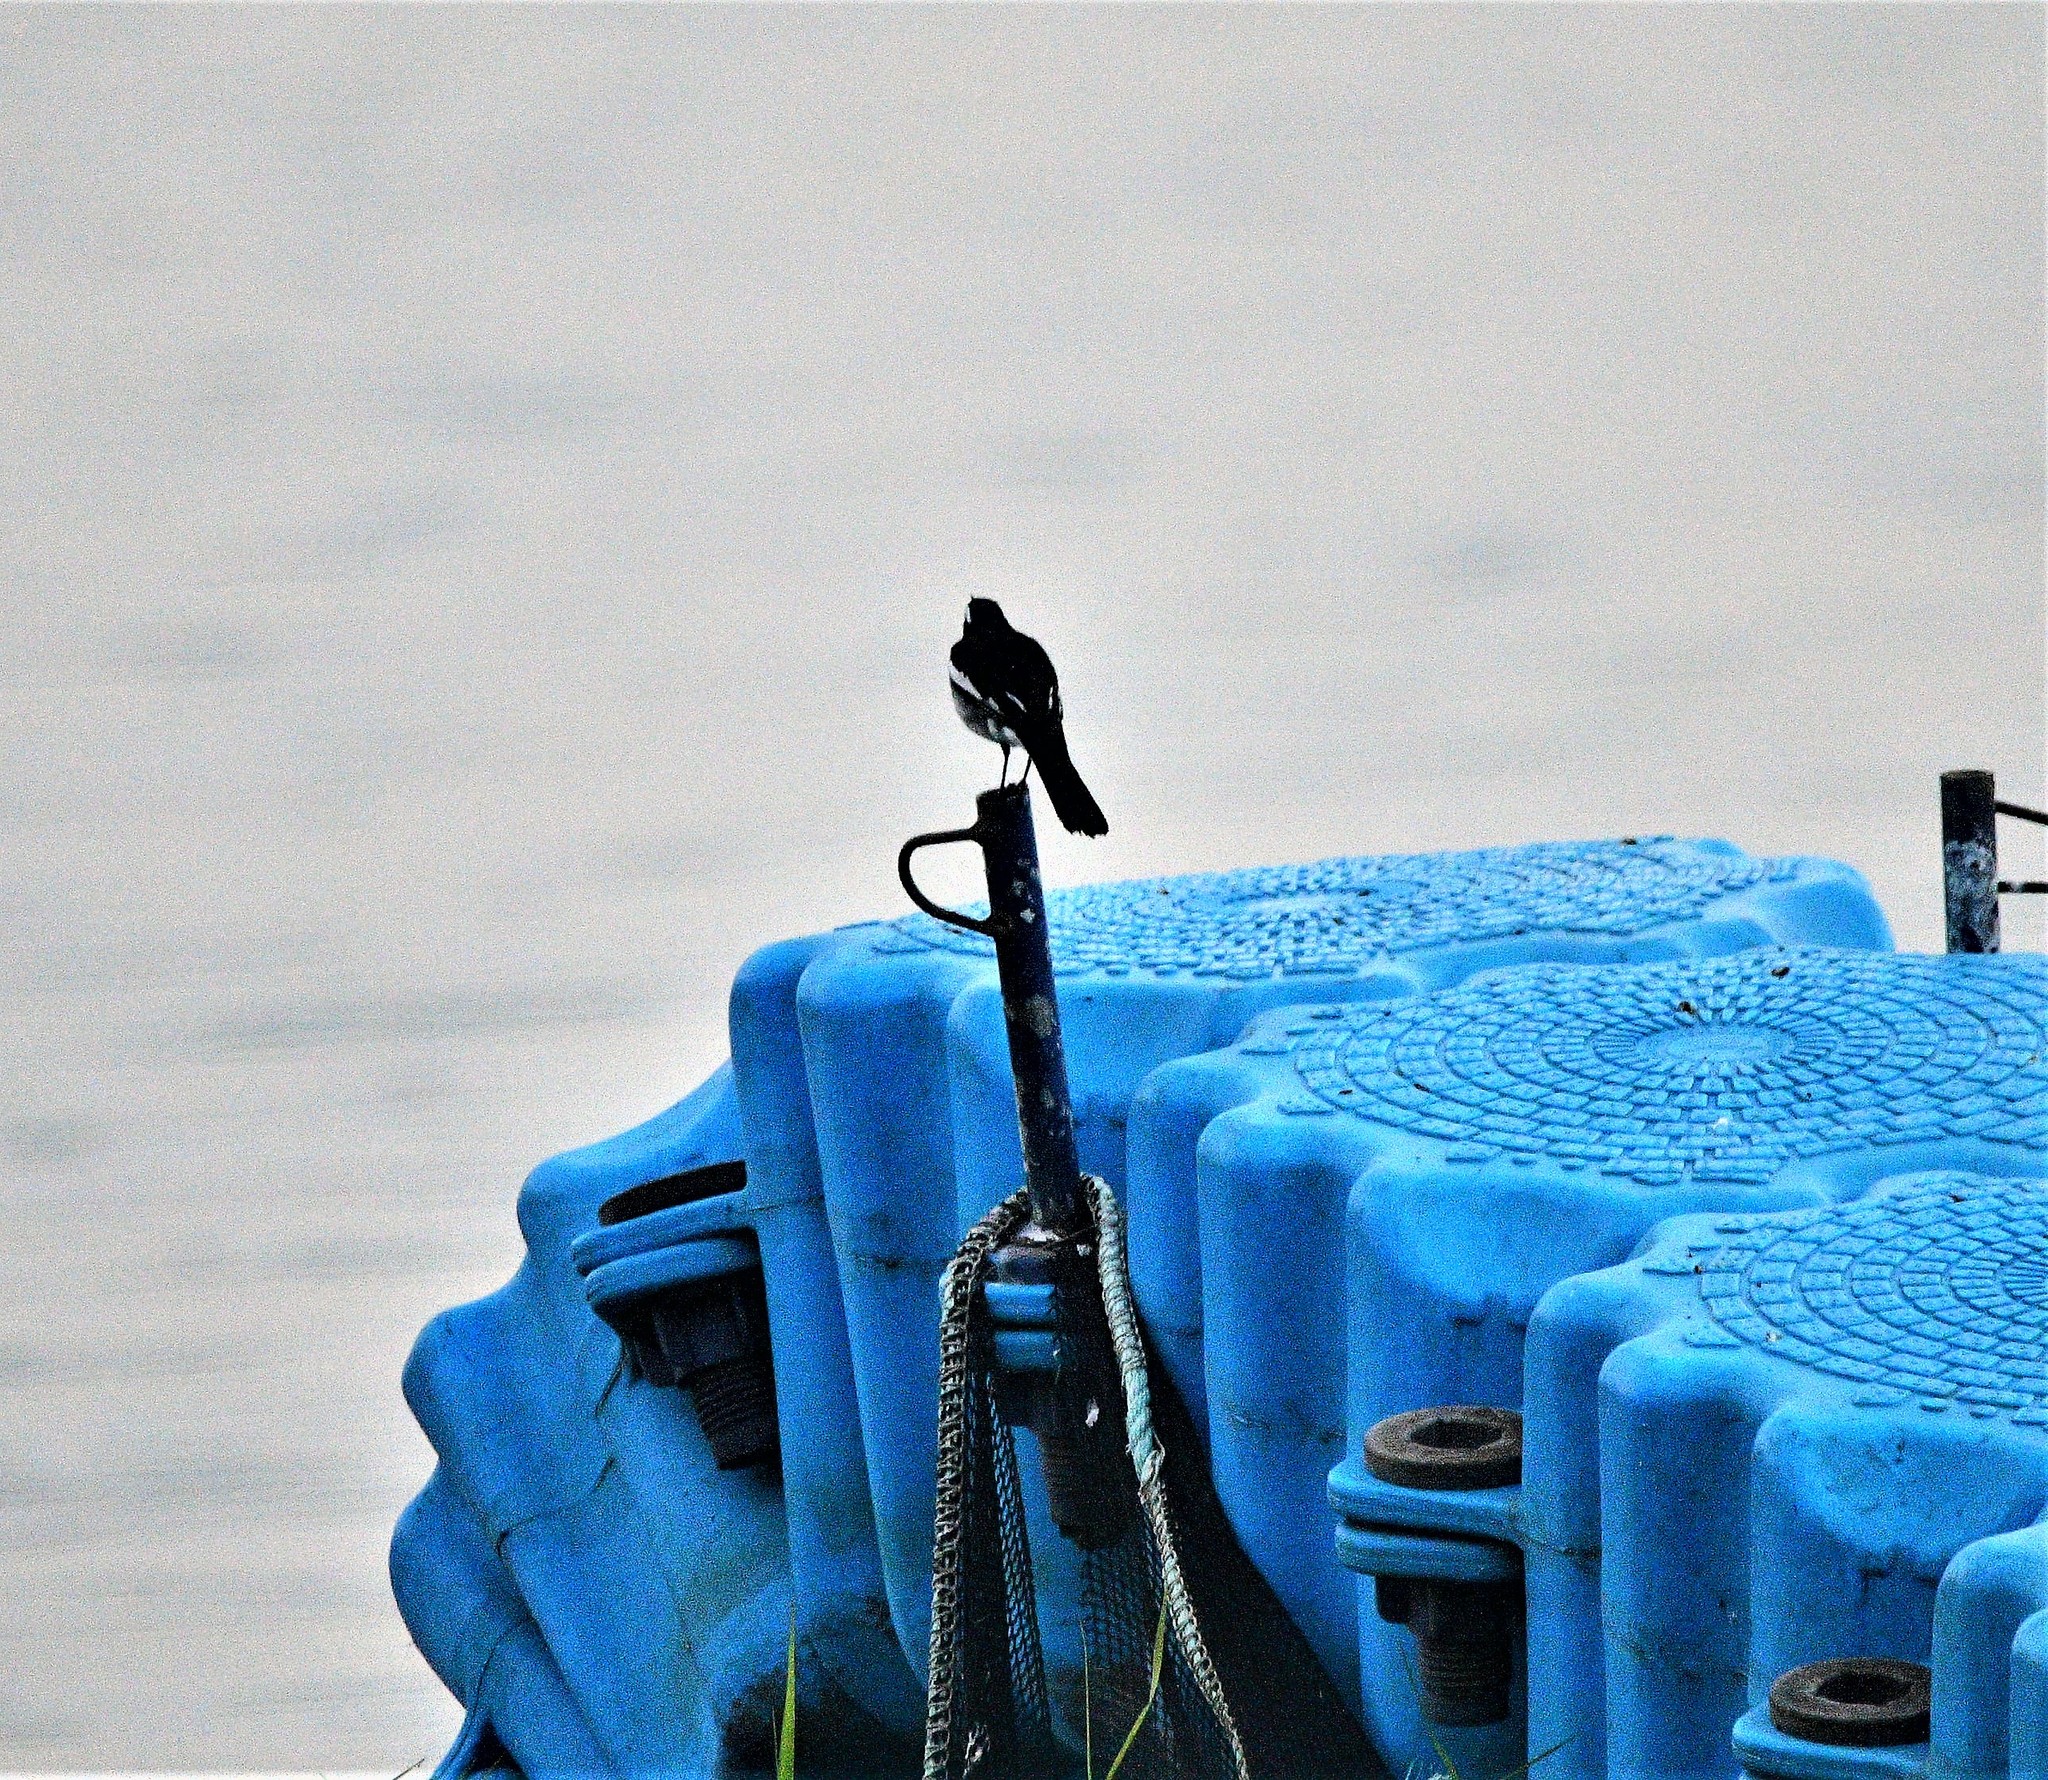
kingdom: Animalia
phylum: Chordata
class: Aves
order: Passeriformes
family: Motacillidae
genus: Motacilla
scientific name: Motacilla maderaspatensis
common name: White-browed wagtail
